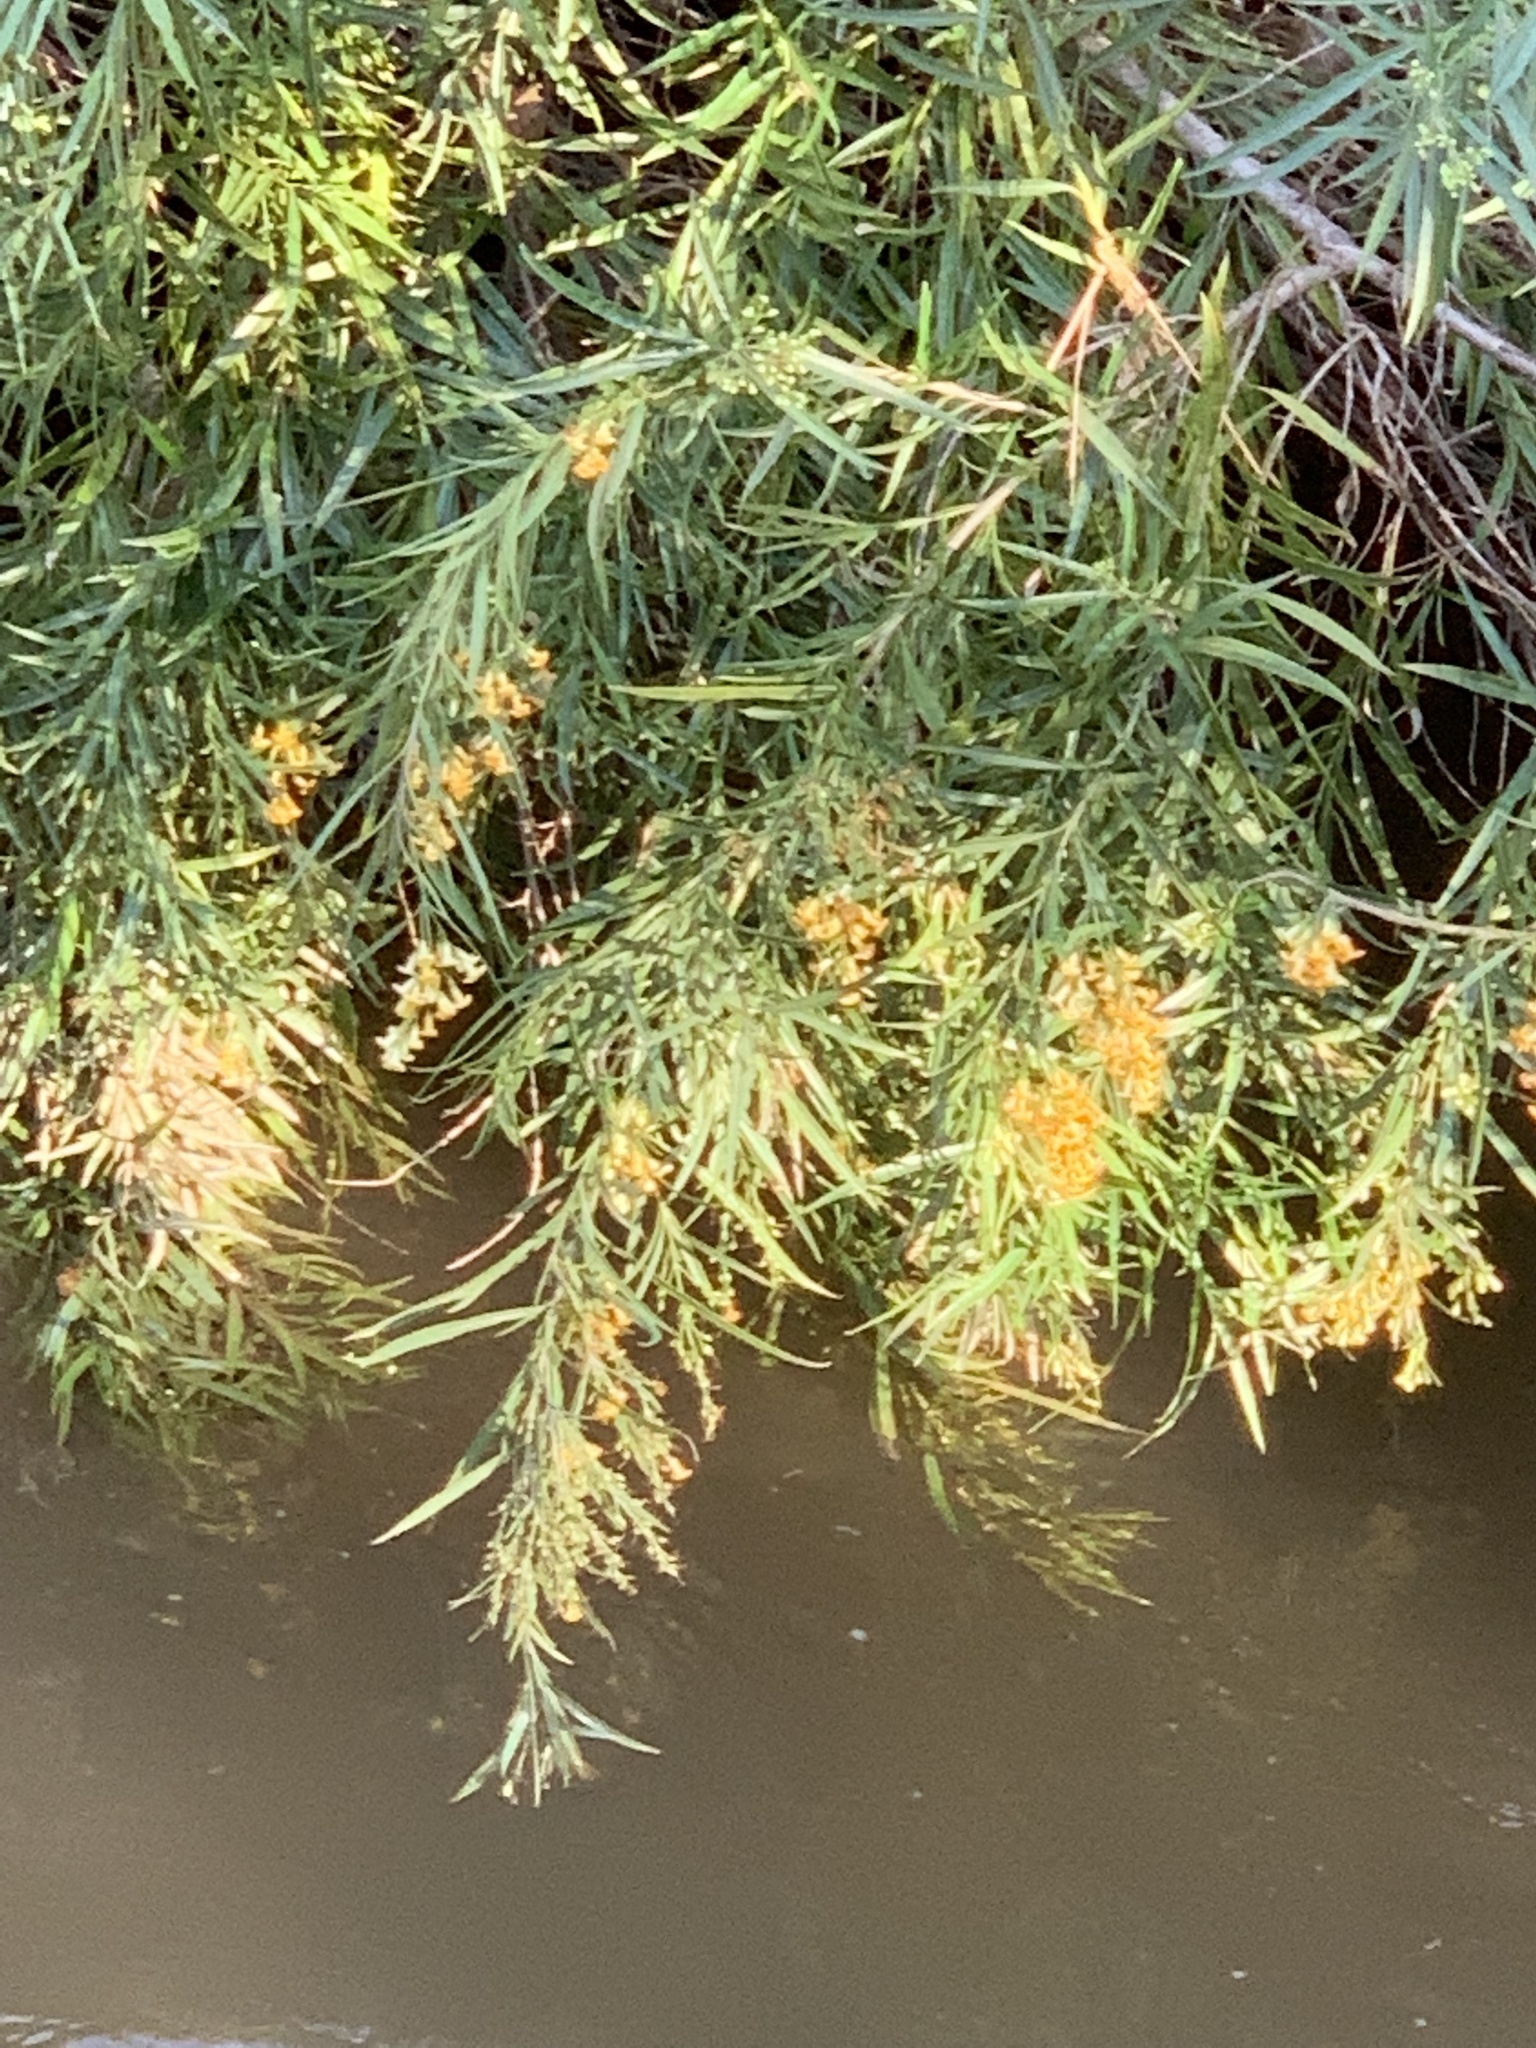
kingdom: Plantae
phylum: Tracheophyta
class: Magnoliopsida
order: Lamiales
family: Scrophulariaceae
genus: Freylinia
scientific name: Freylinia lanceolata
